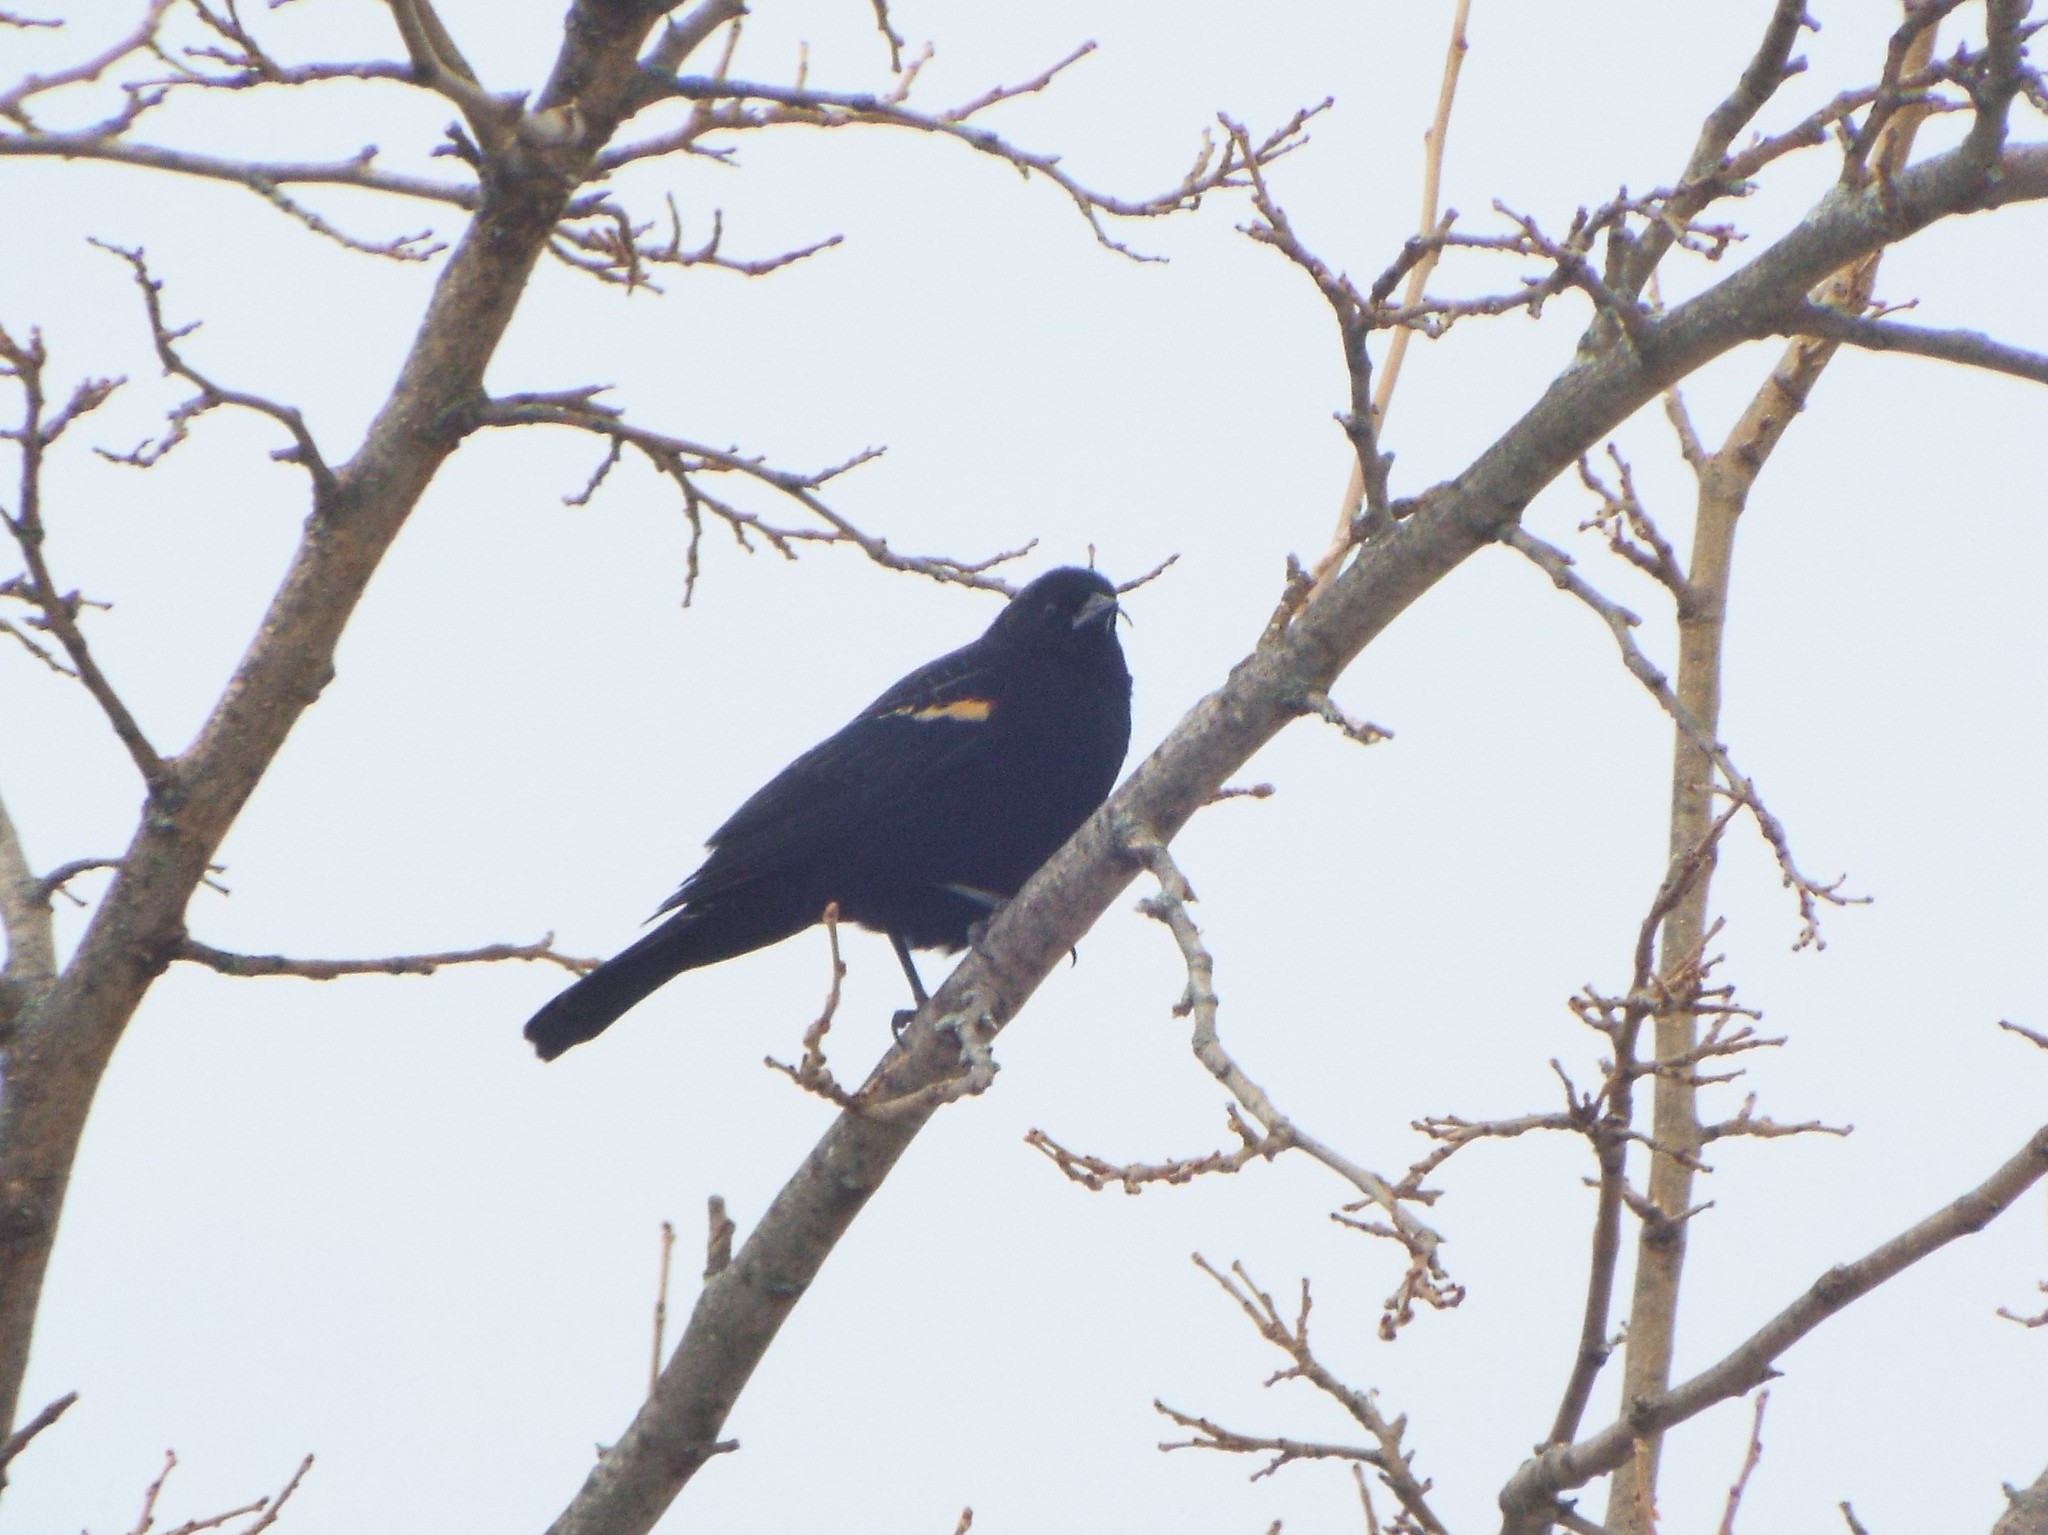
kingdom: Animalia
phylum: Chordata
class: Aves
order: Passeriformes
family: Icteridae
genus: Agelaius
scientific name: Agelaius phoeniceus
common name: Red-winged blackbird
